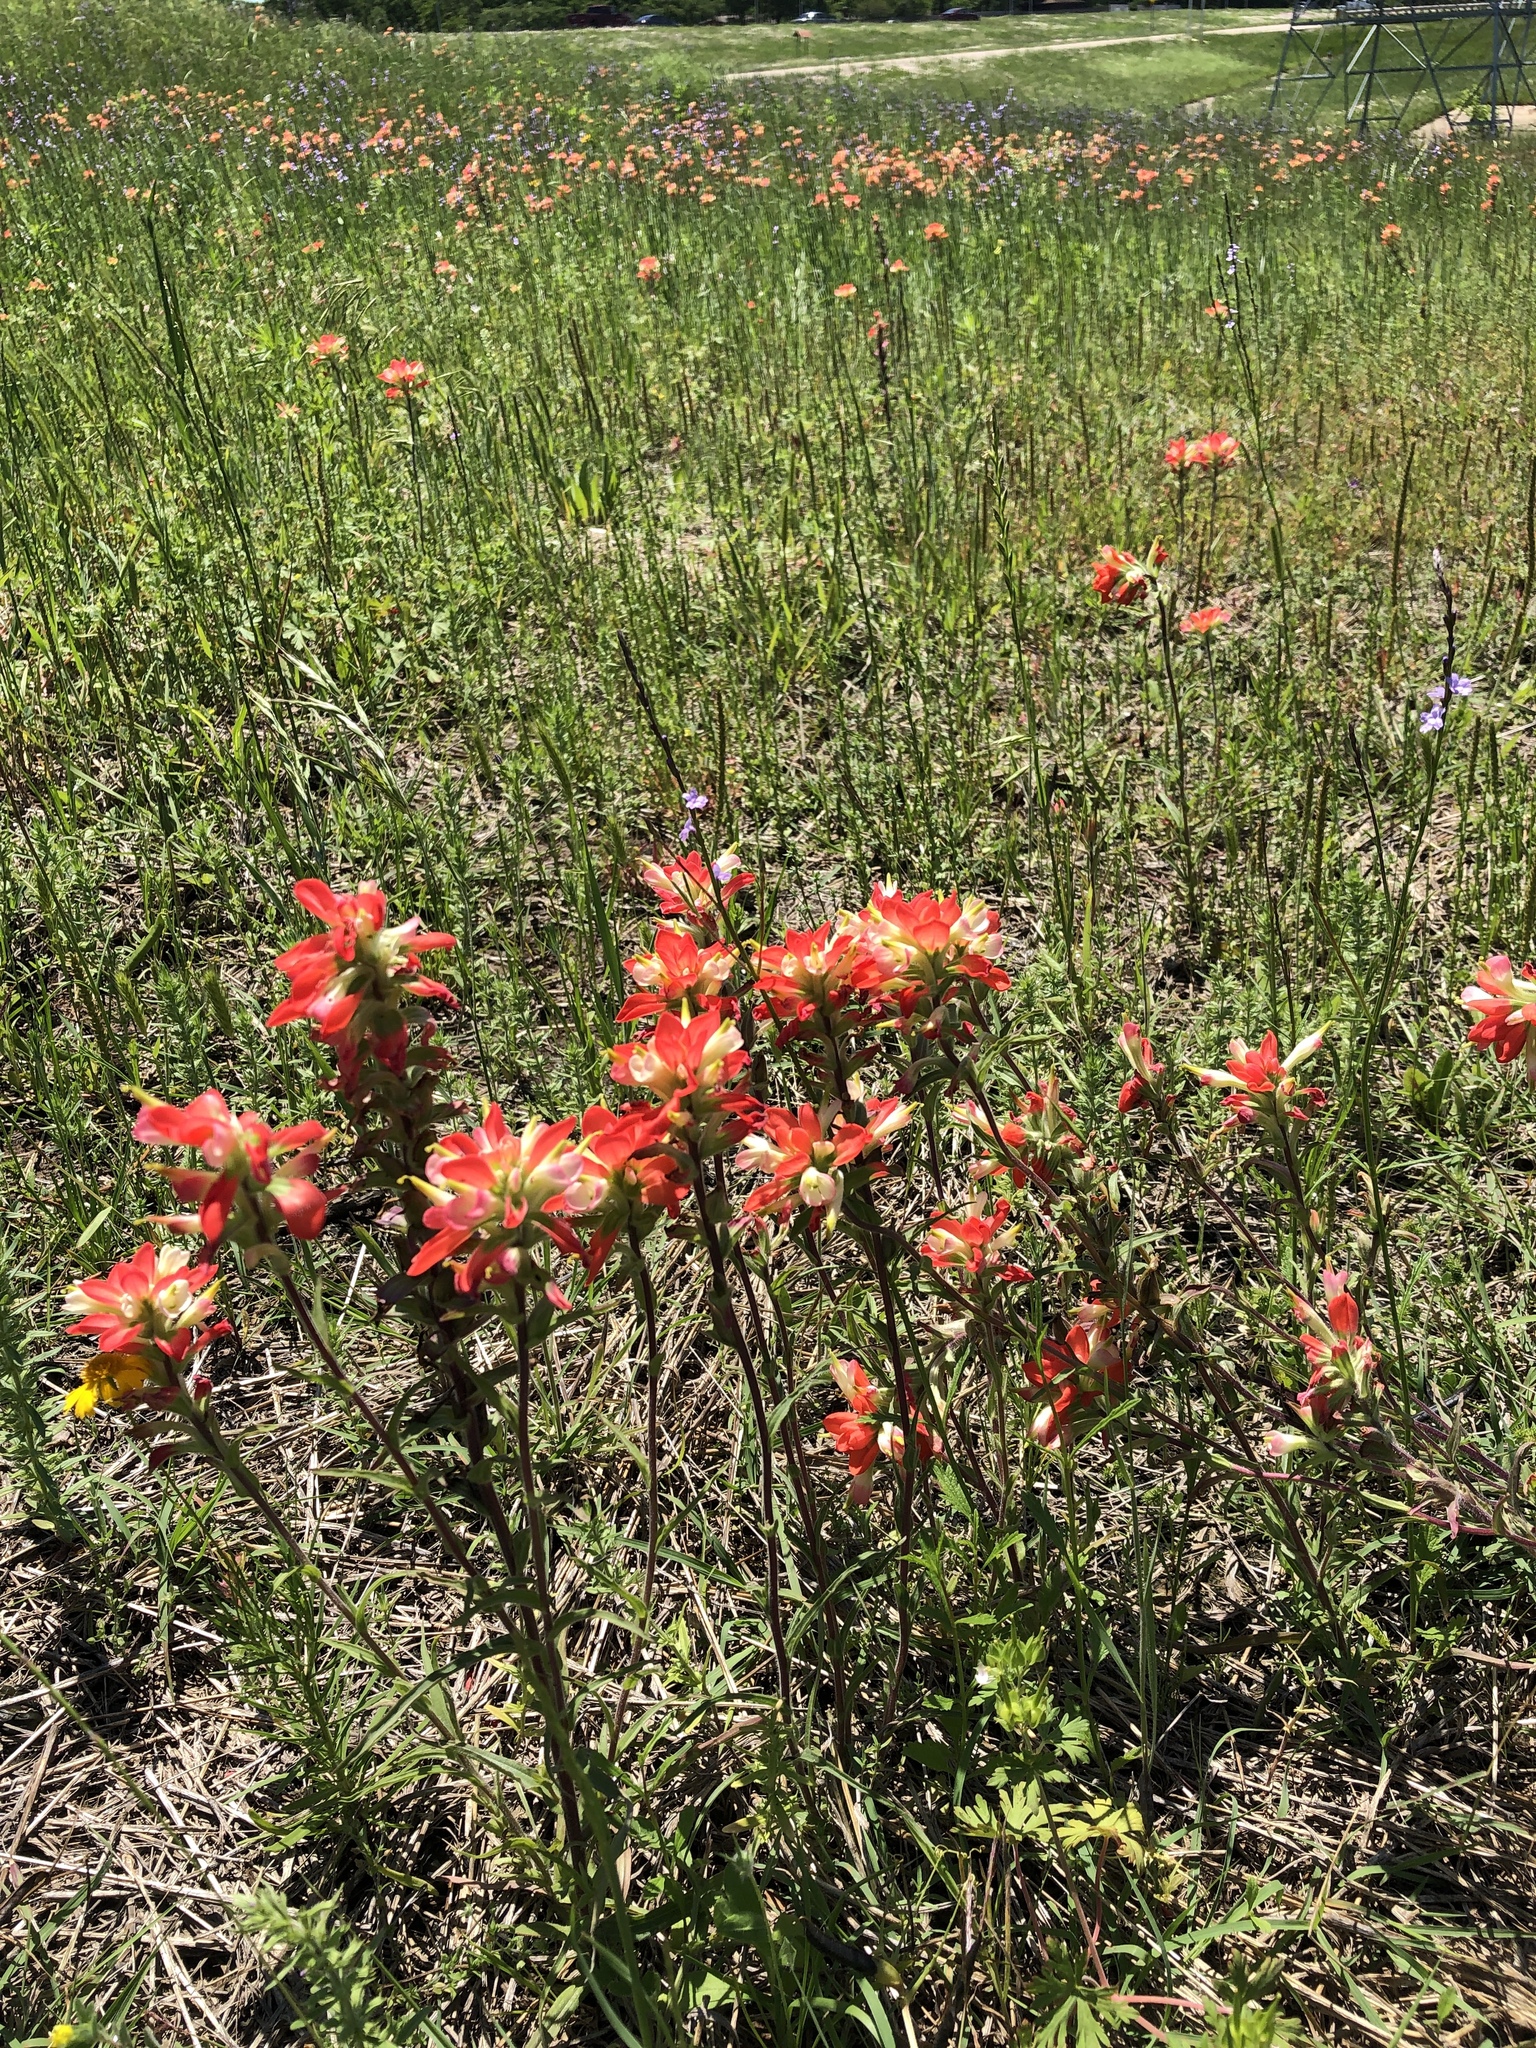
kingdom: Plantae
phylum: Tracheophyta
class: Magnoliopsida
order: Lamiales
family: Orobanchaceae
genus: Castilleja
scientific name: Castilleja indivisa
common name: Texas paintbrush
